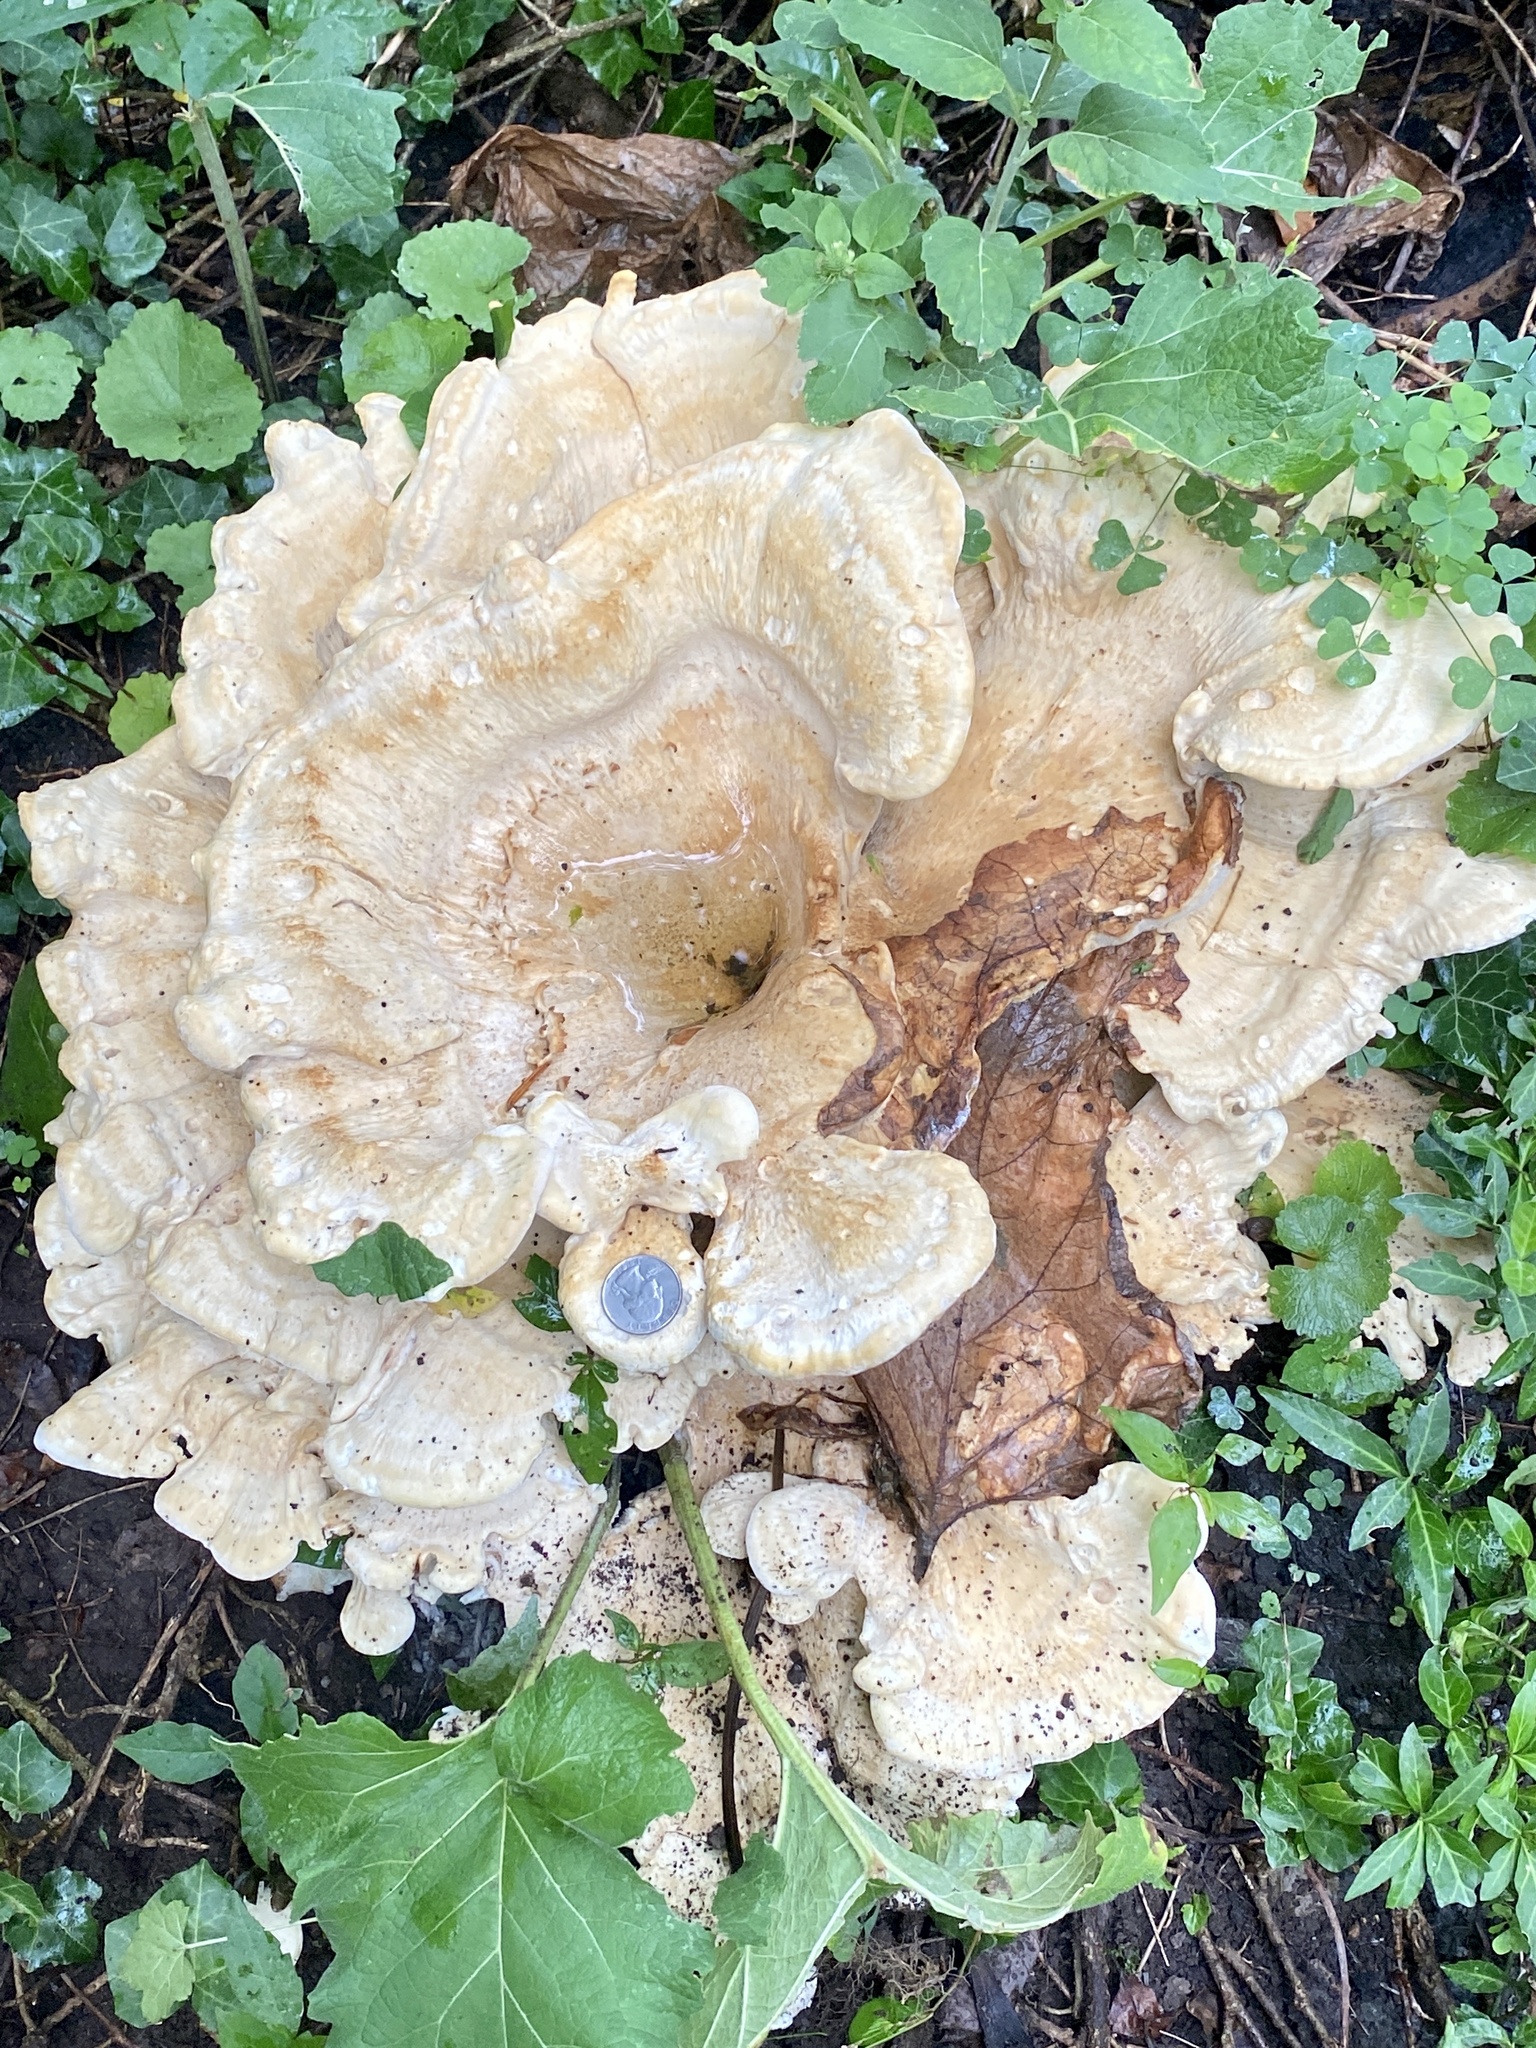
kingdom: Fungi
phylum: Basidiomycota
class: Agaricomycetes
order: Russulales
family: Bondarzewiaceae
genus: Bondarzewia
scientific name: Bondarzewia berkeleyi
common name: Berkeley's polypore
